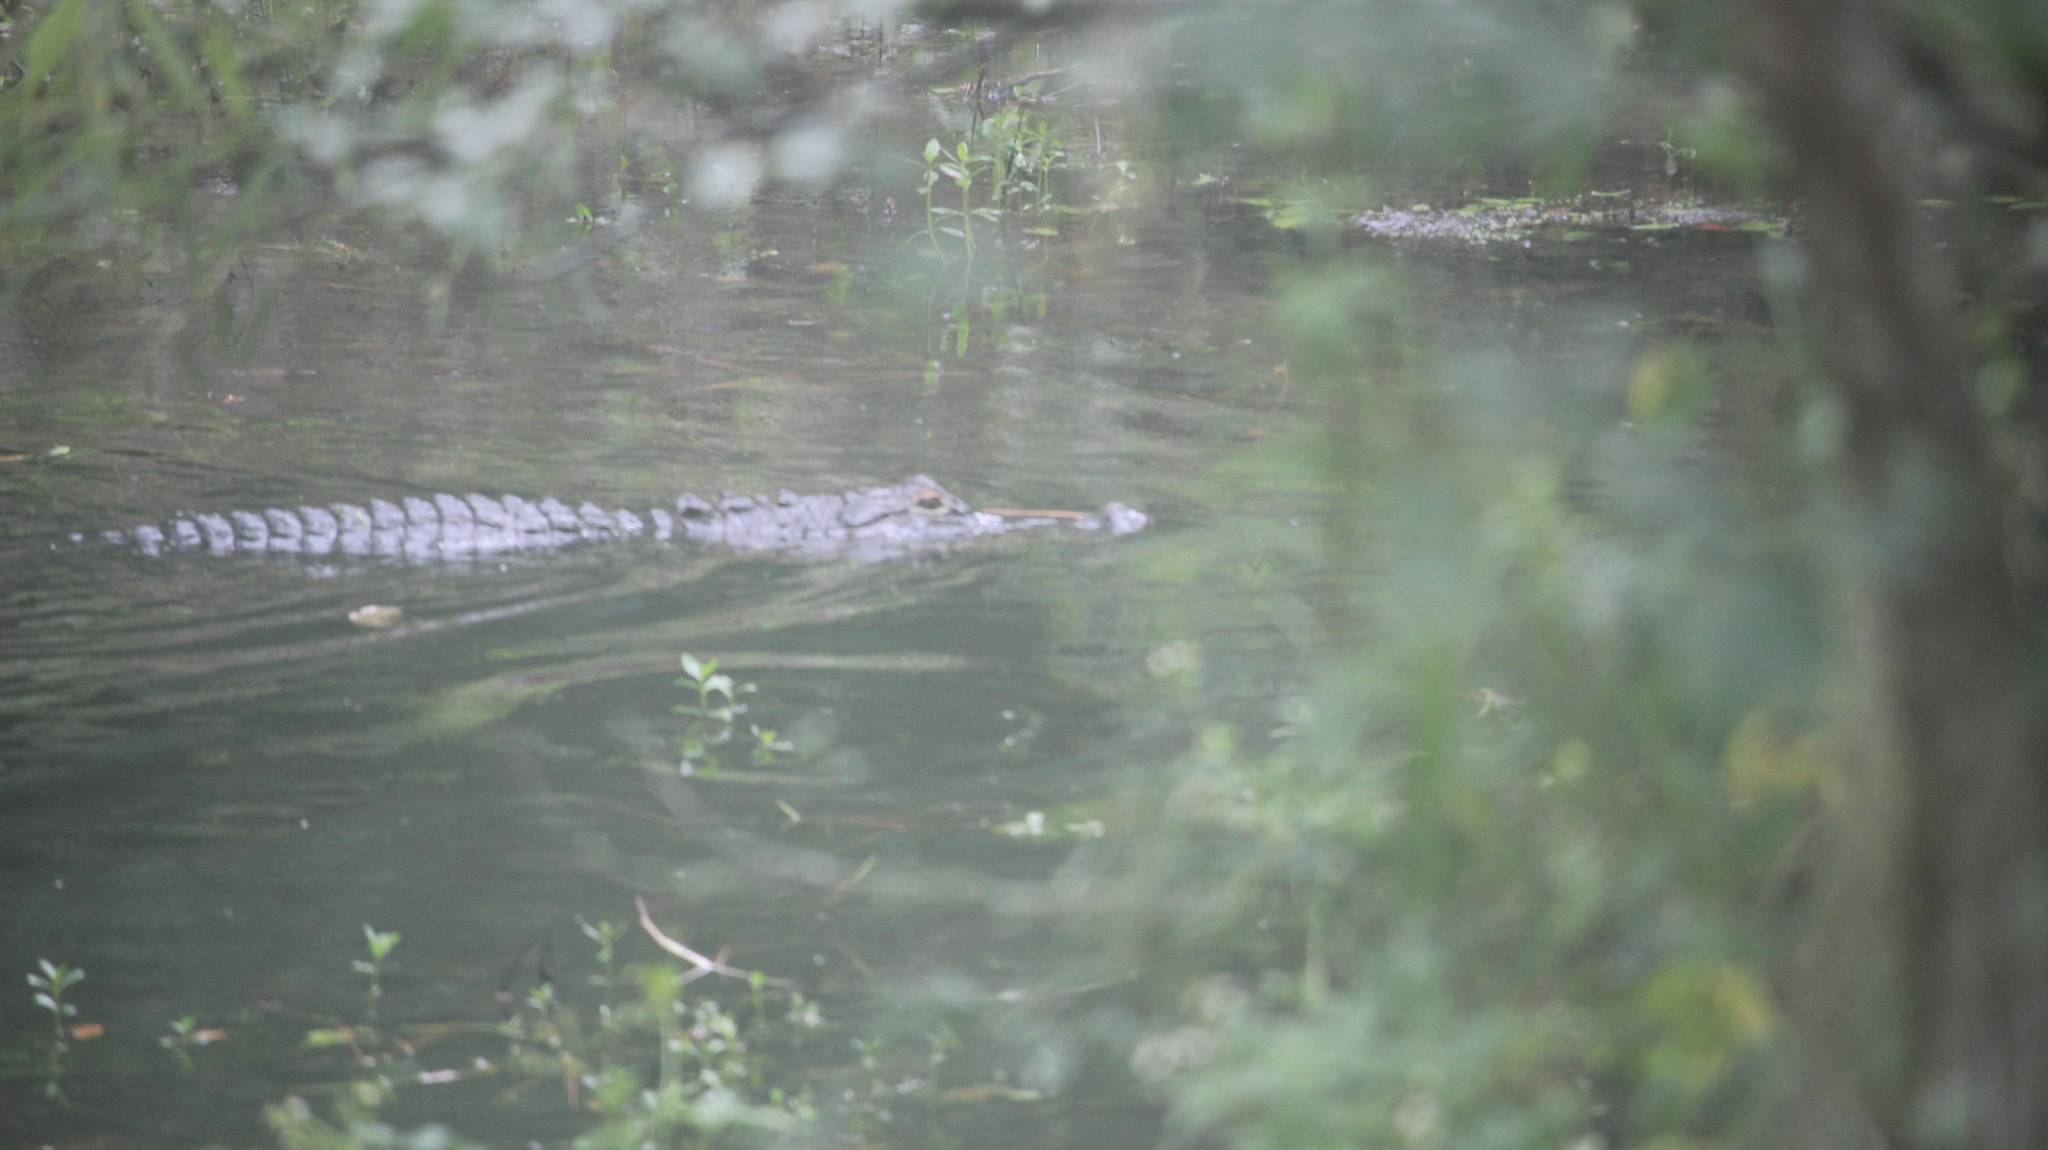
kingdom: Animalia
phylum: Chordata
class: Crocodylia
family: Alligatoridae
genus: Alligator
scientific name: Alligator mississippiensis
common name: American alligator
